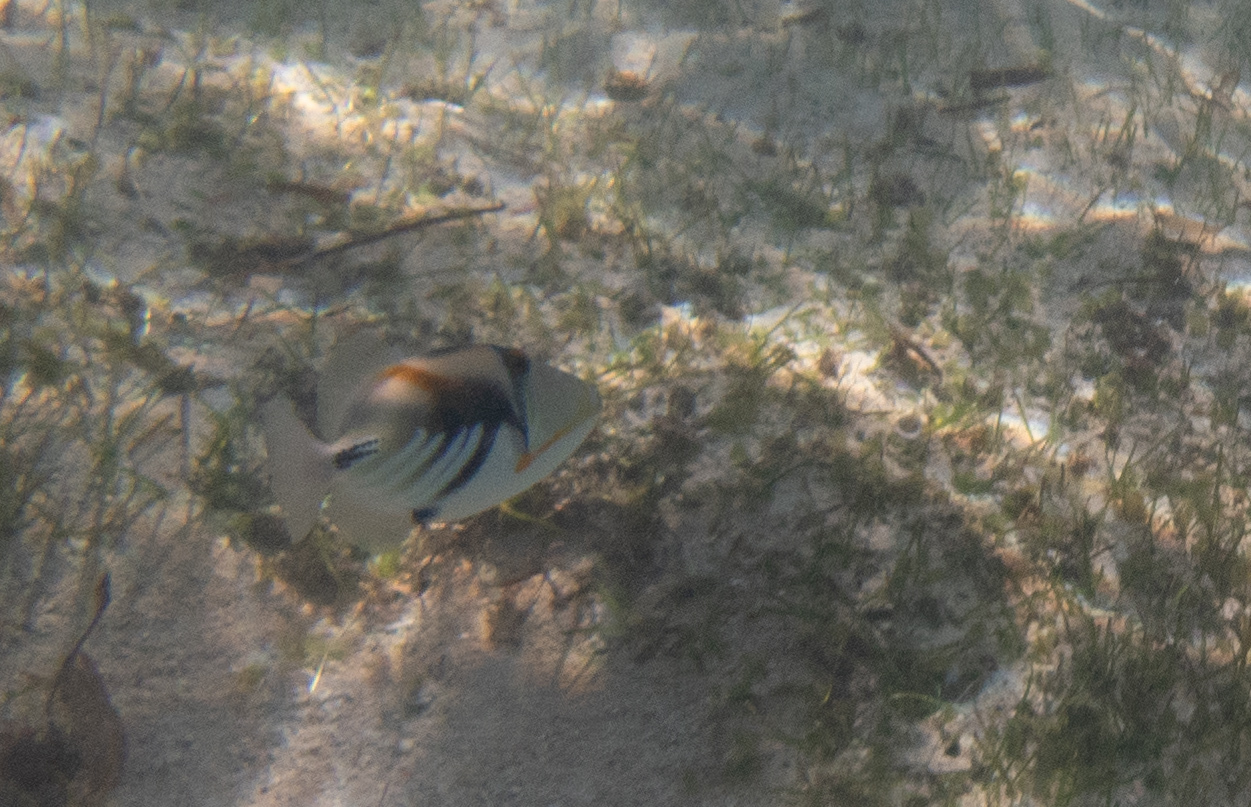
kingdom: Animalia
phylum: Chordata
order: Tetraodontiformes
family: Balistidae
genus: Rhinecanthus
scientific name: Rhinecanthus aculeatus
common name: White-banded triggerfish
